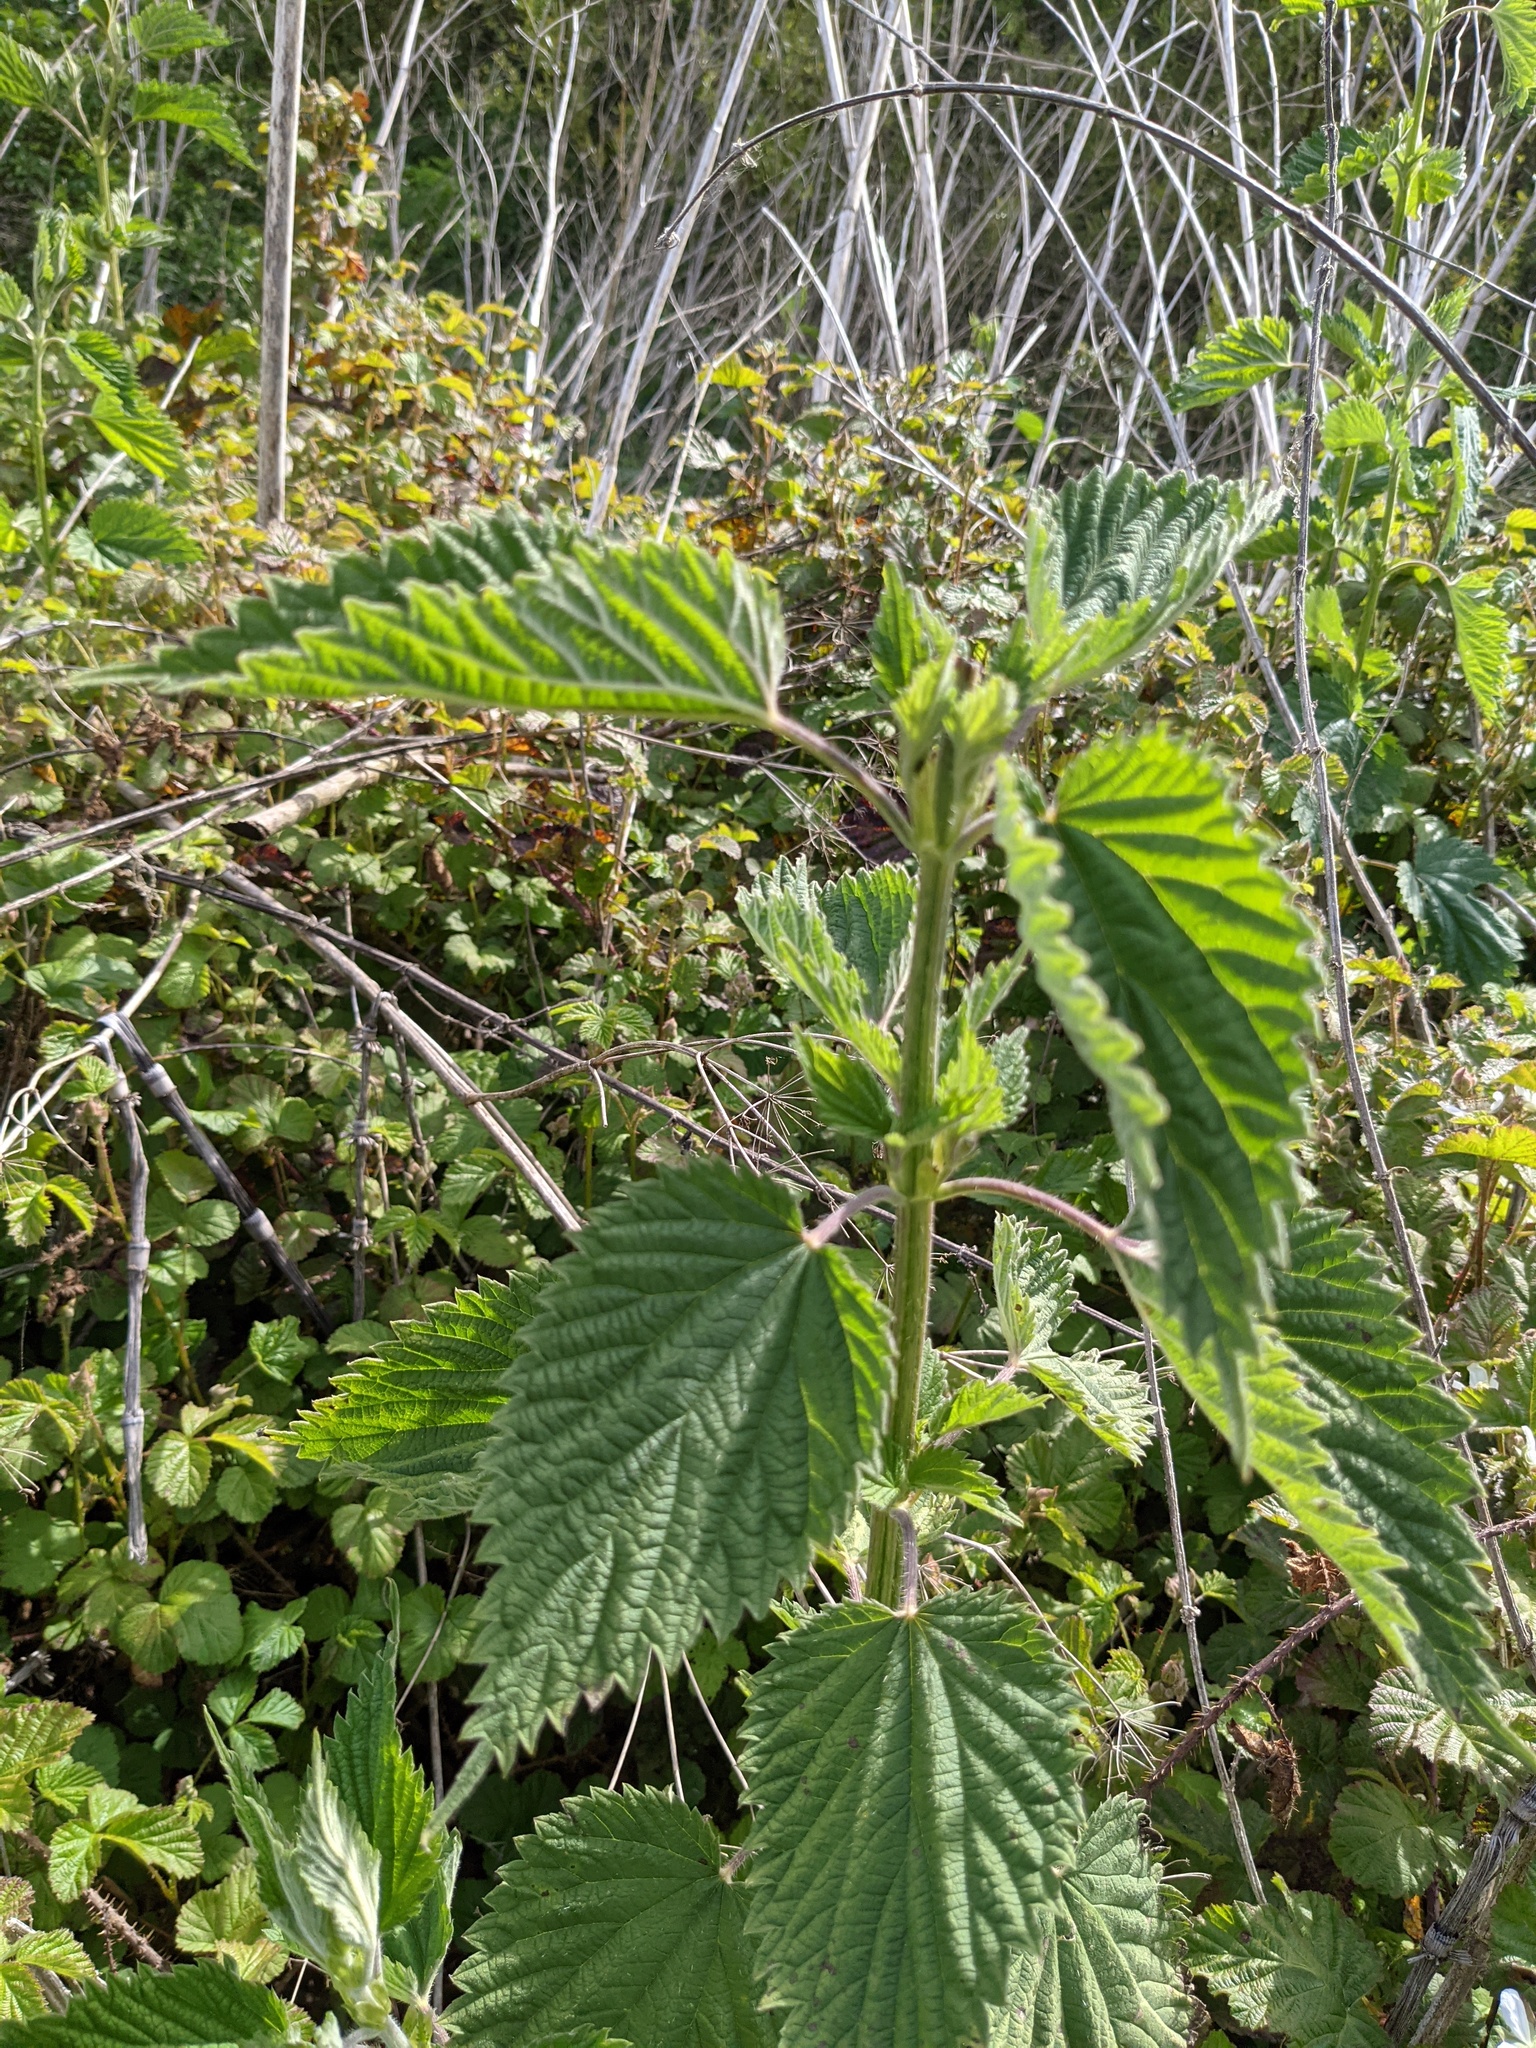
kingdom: Plantae
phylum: Tracheophyta
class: Magnoliopsida
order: Rosales
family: Urticaceae
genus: Urtica
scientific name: Urtica dioica
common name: Common nettle
